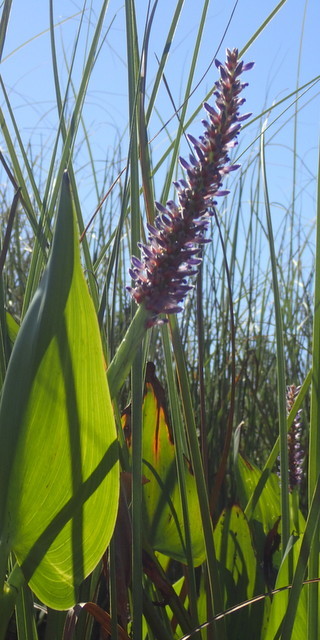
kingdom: Plantae
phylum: Tracheophyta
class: Liliopsida
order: Commelinales
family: Pontederiaceae
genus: Pontederia
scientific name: Pontederia cordata
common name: Pickerelweed
